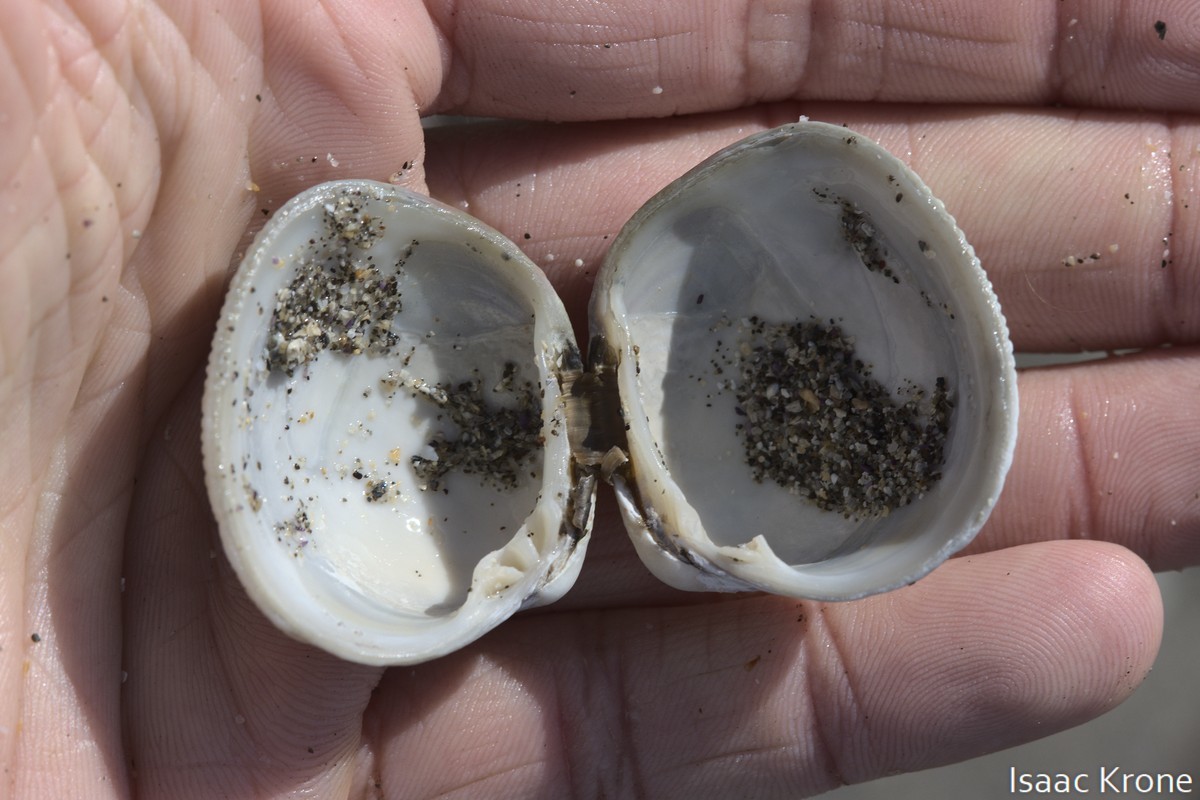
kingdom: Animalia
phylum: Mollusca
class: Bivalvia
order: Venerida
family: Veneridae
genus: Leukoma
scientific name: Leukoma staminea
